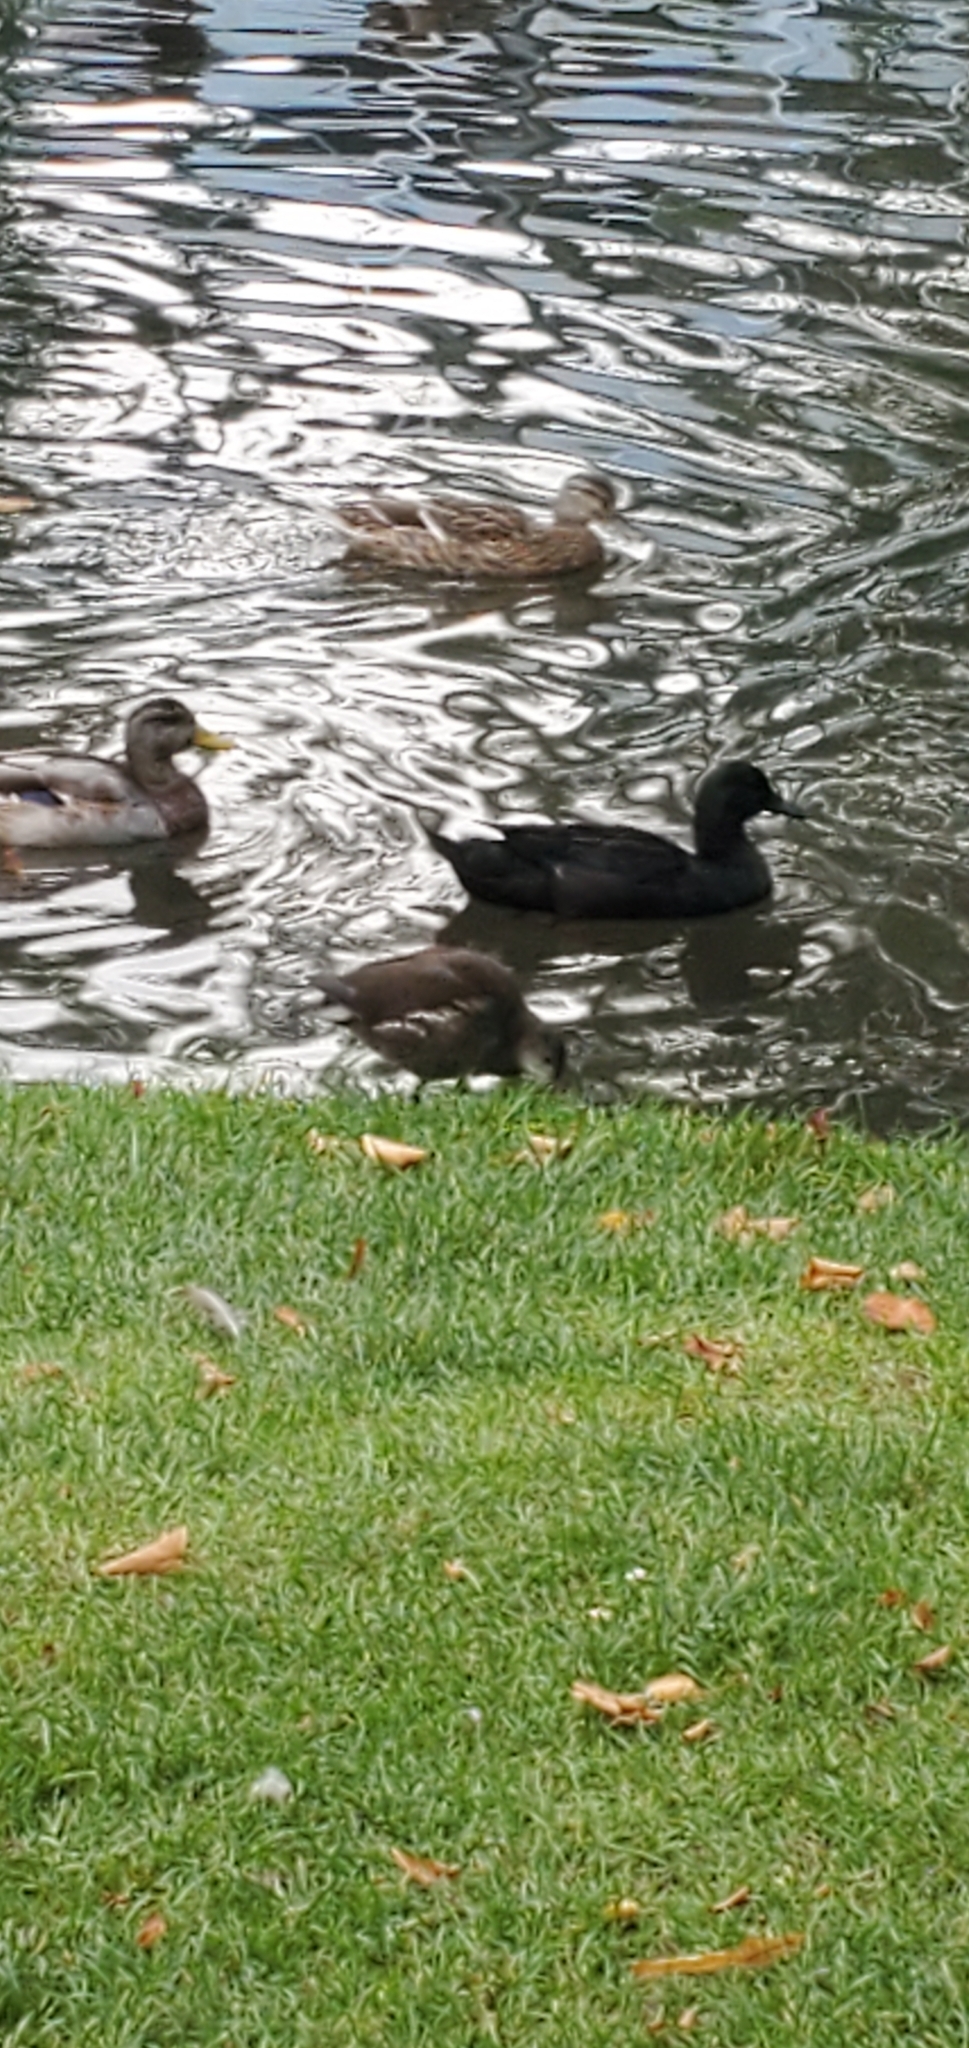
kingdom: Animalia
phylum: Chordata
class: Aves
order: Gruiformes
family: Rallidae
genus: Gallinula
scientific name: Gallinula chloropus
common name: Common moorhen
